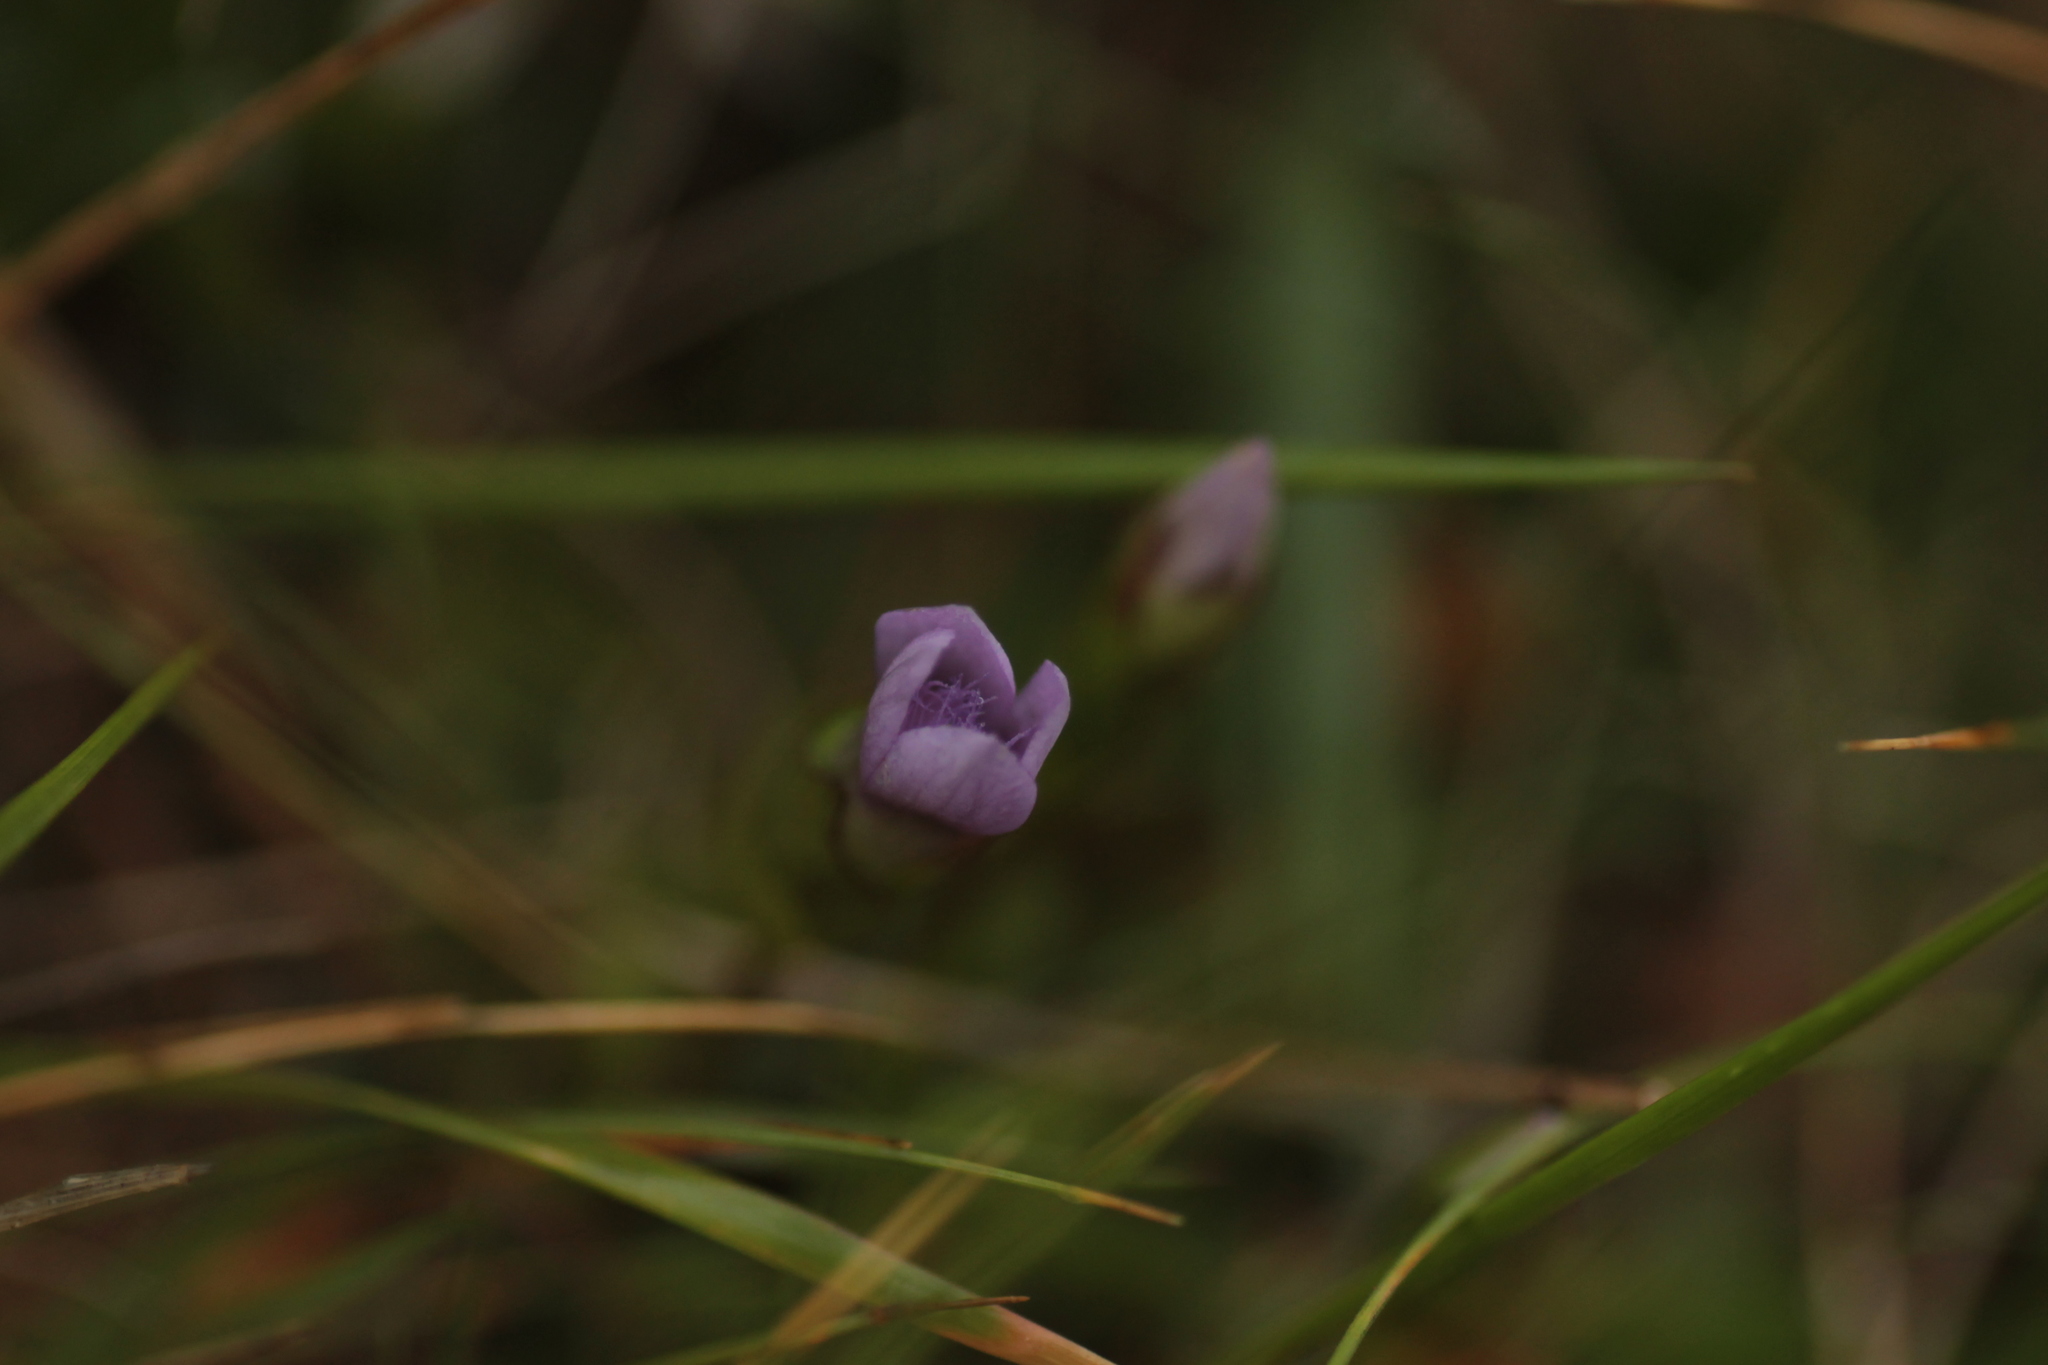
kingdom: Plantae
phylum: Tracheophyta
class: Magnoliopsida
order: Gentianales
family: Gentianaceae
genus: Gentianella
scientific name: Gentianella campestris
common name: Field gentian
